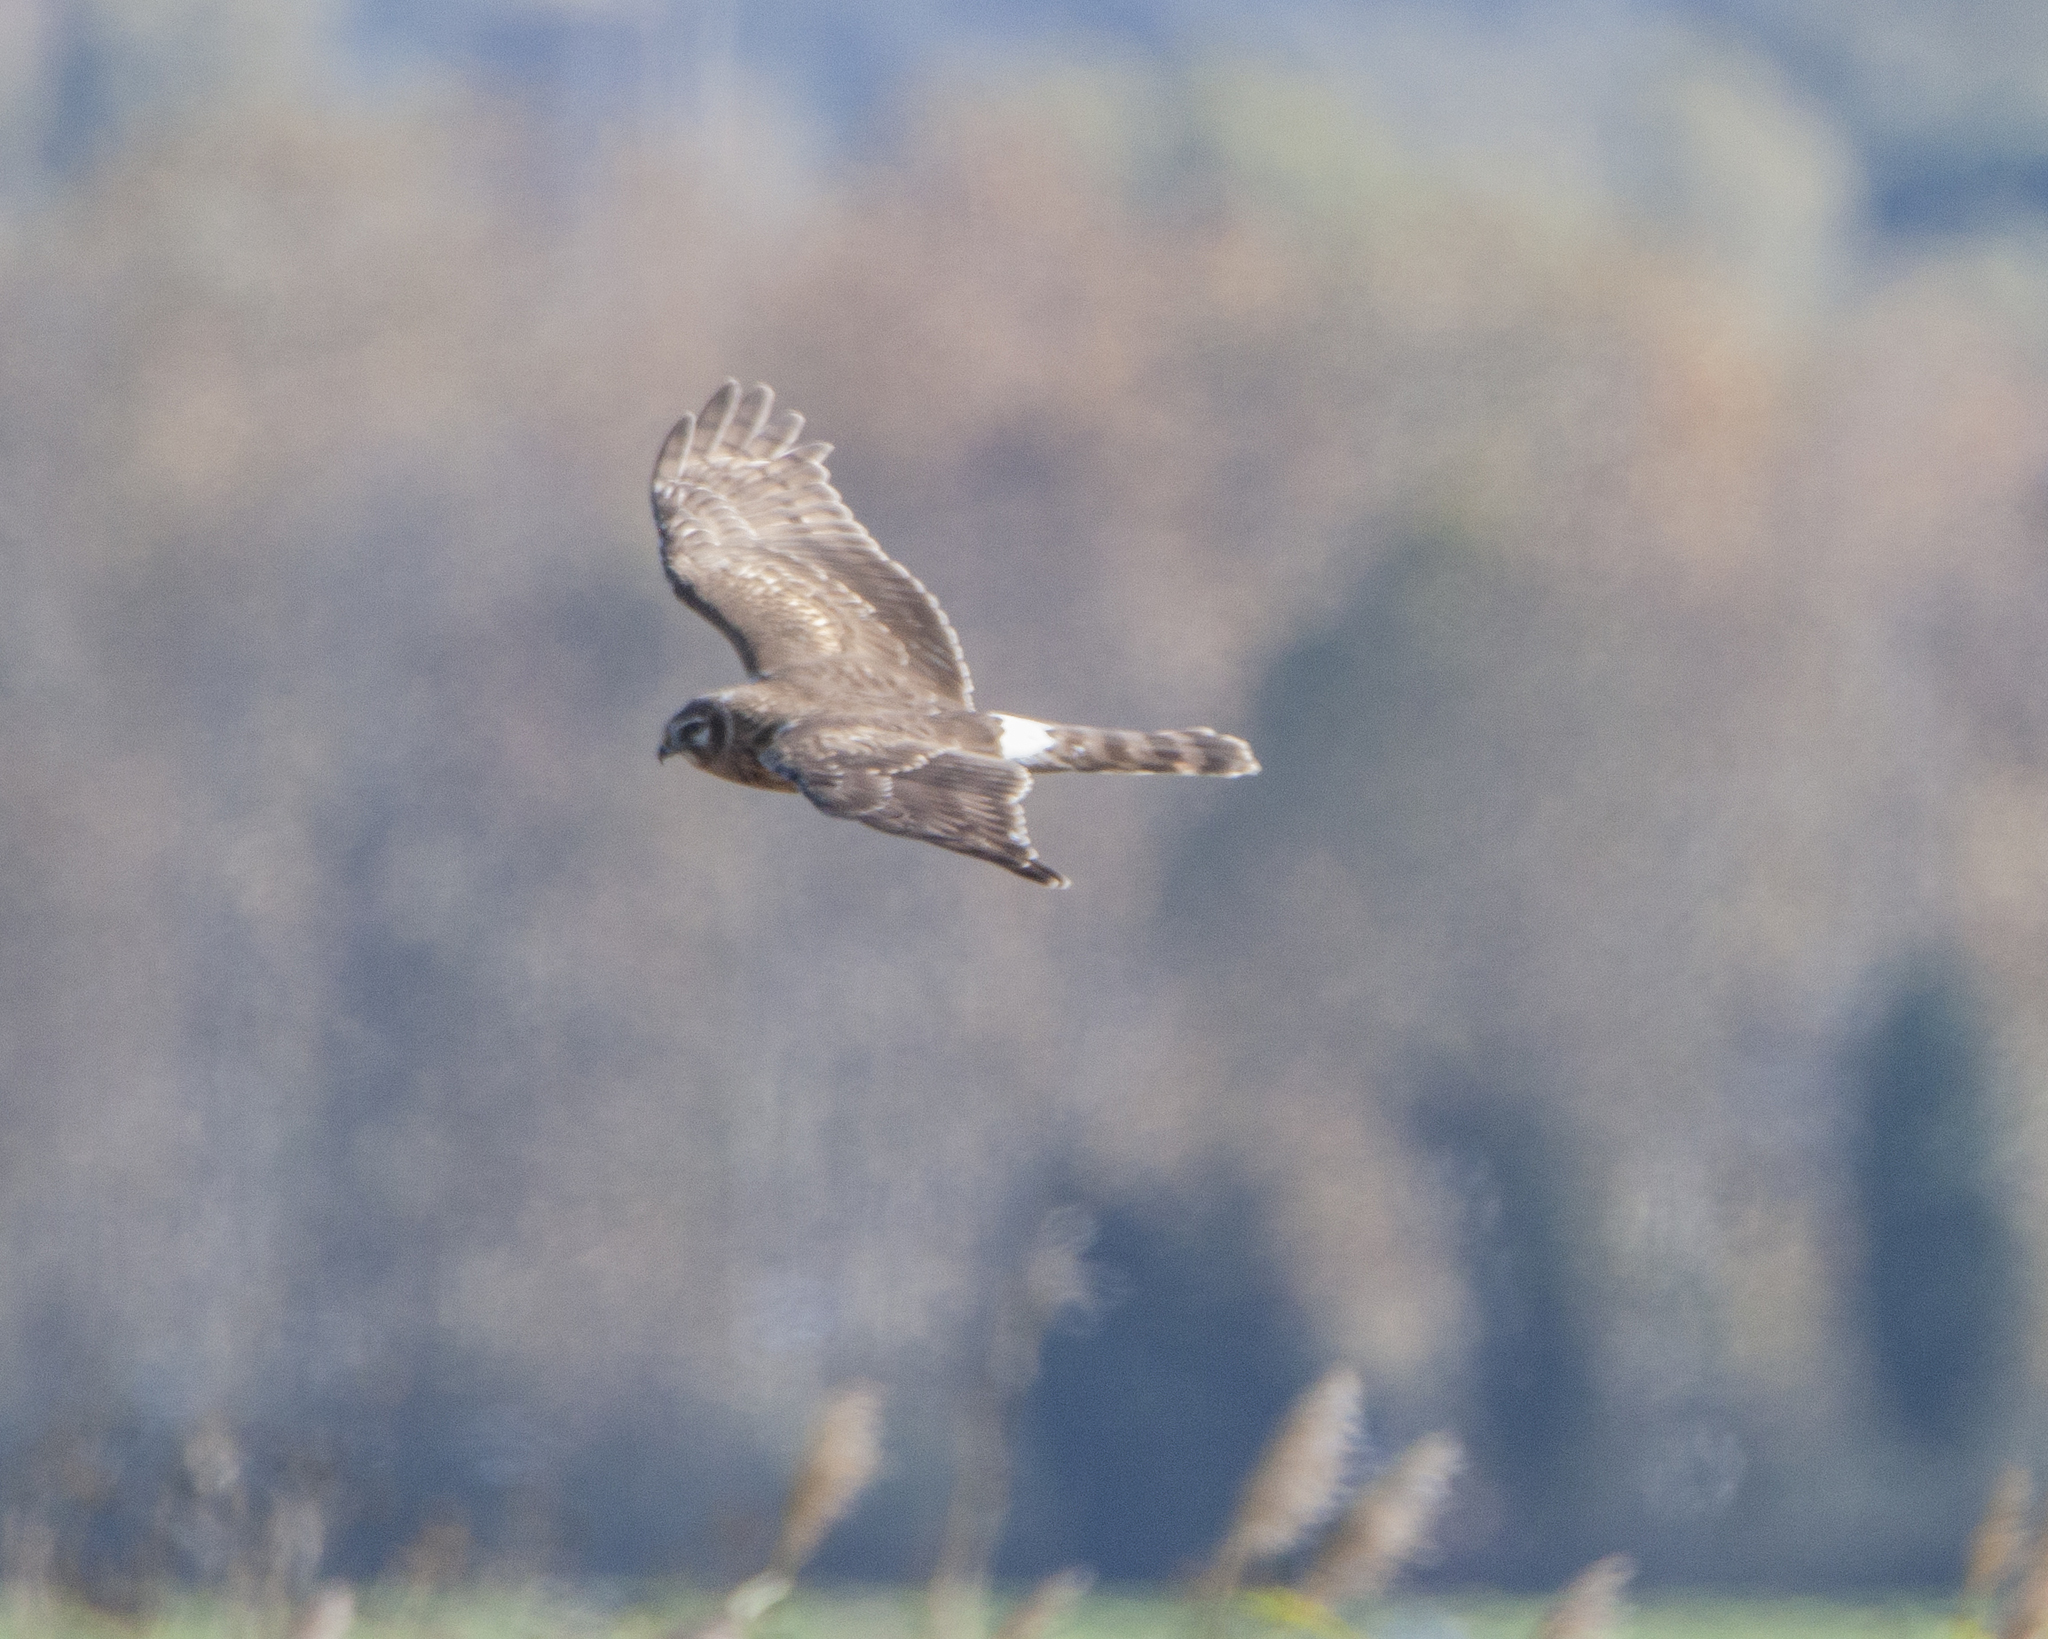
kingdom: Animalia
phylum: Chordata
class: Aves
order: Accipitriformes
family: Accipitridae
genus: Circus
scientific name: Circus cyaneus
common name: Hen harrier
